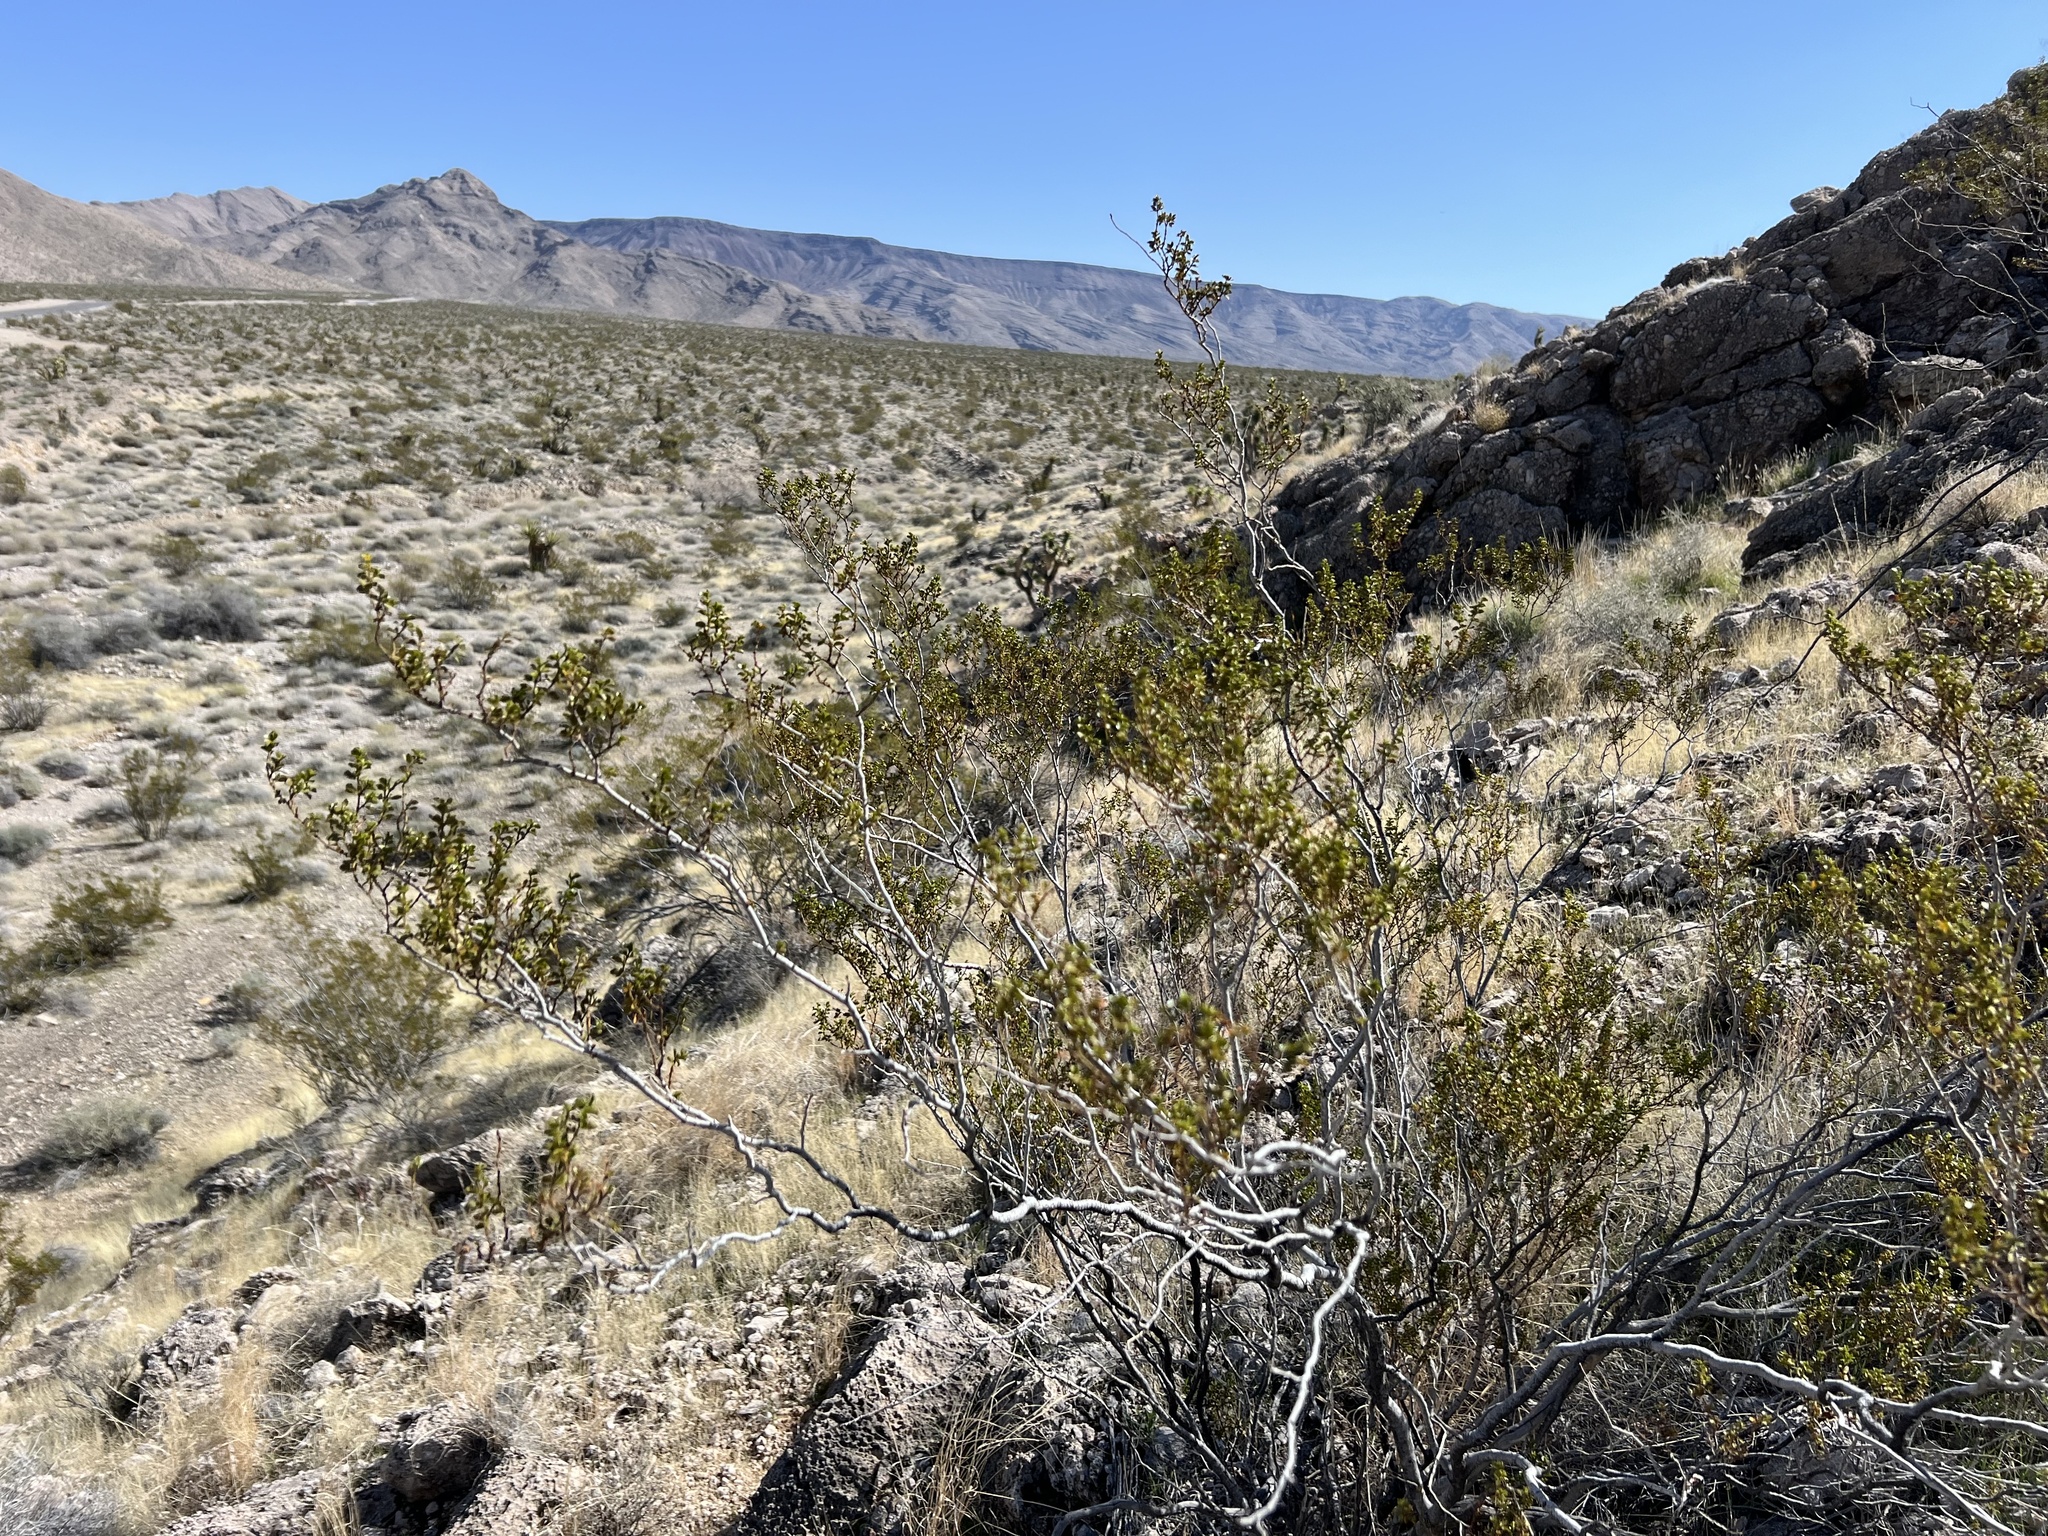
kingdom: Plantae
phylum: Tracheophyta
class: Magnoliopsida
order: Zygophyllales
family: Zygophyllaceae
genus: Larrea
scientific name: Larrea tridentata
